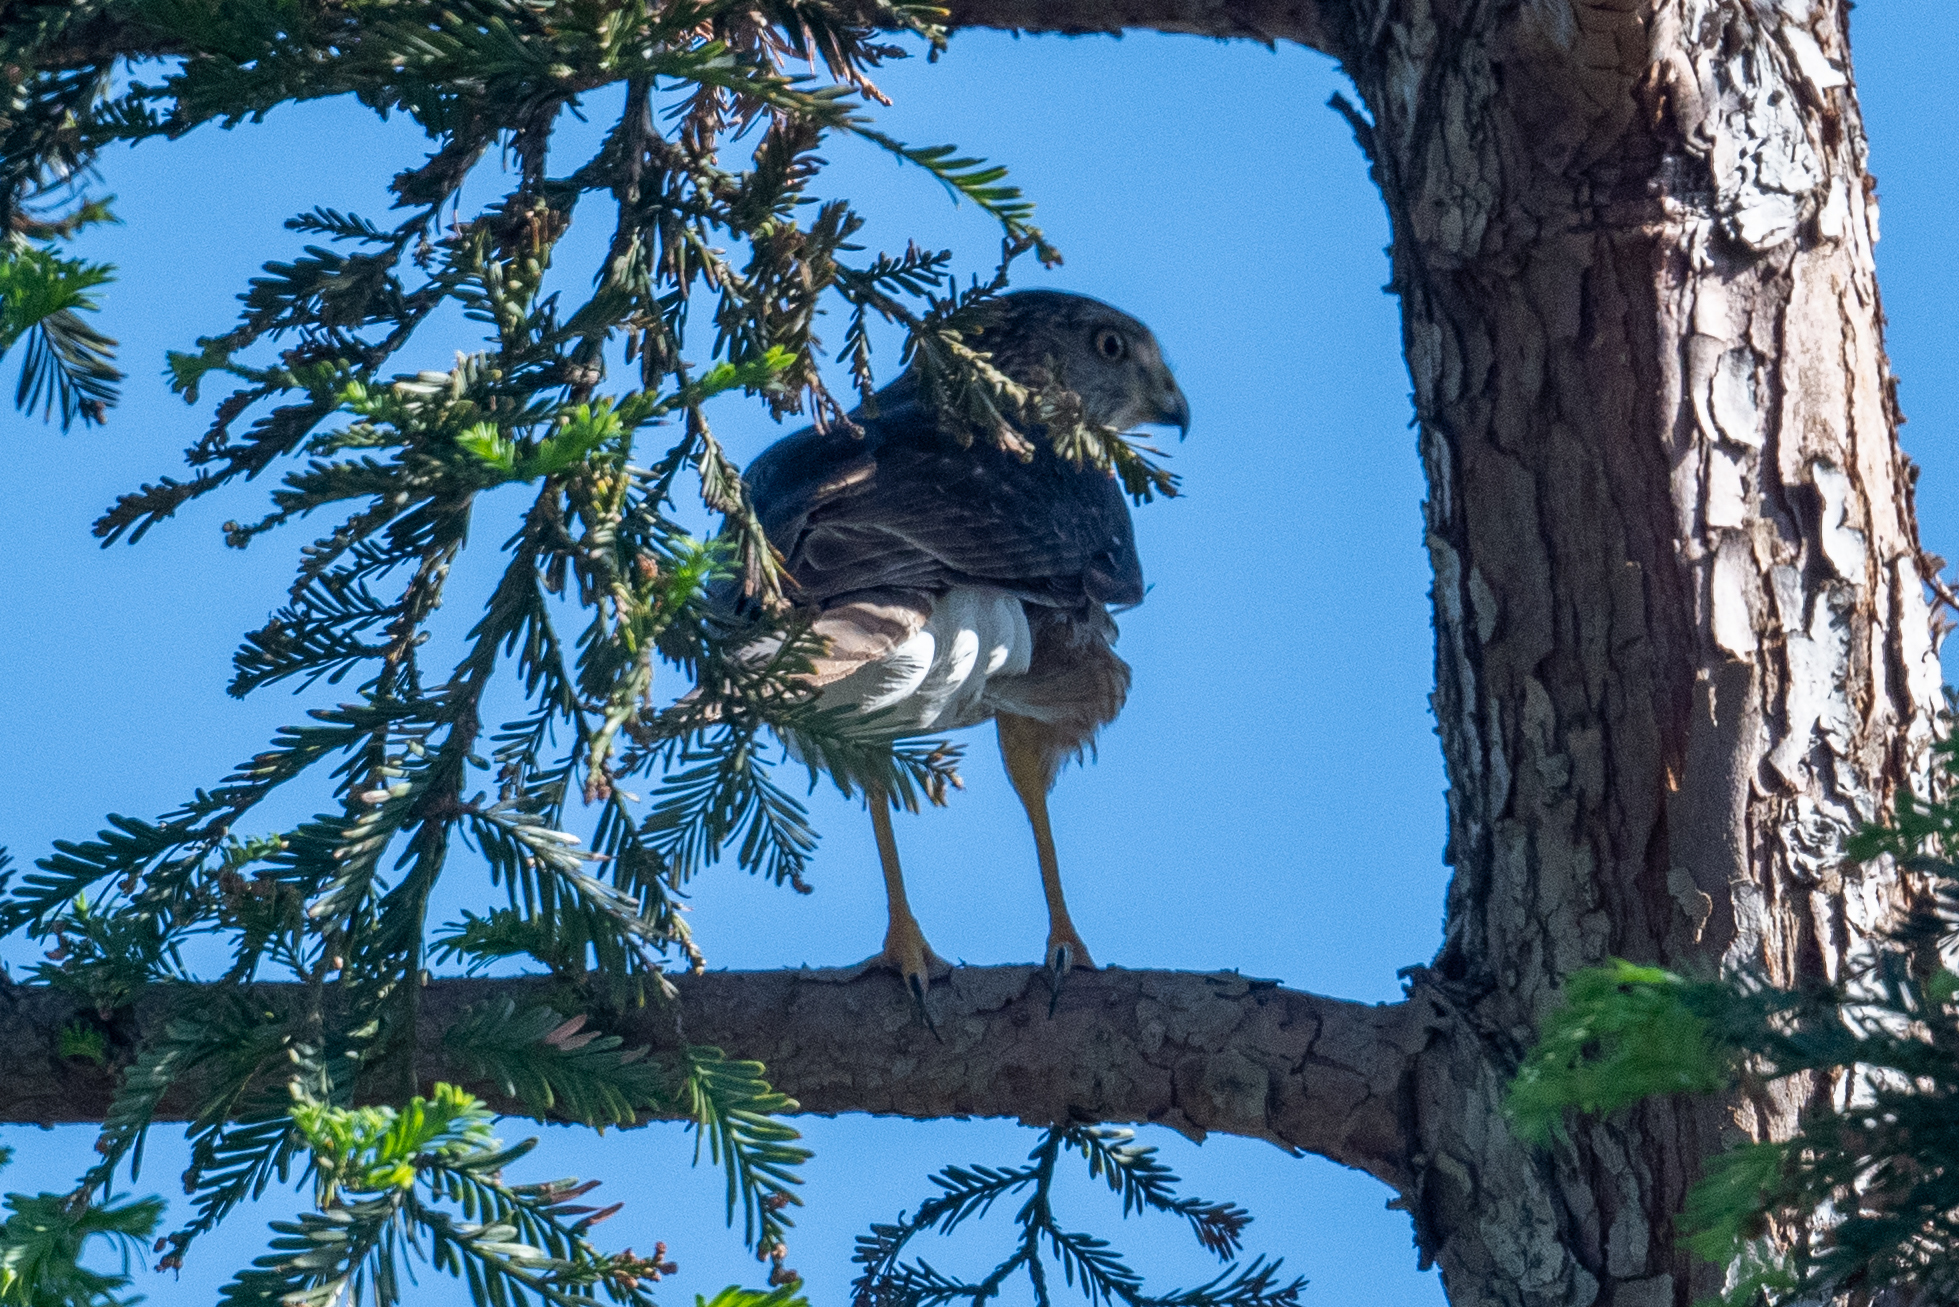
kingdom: Animalia
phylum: Chordata
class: Aves
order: Accipitriformes
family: Accipitridae
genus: Accipiter
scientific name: Accipiter cooperii
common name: Cooper's hawk
